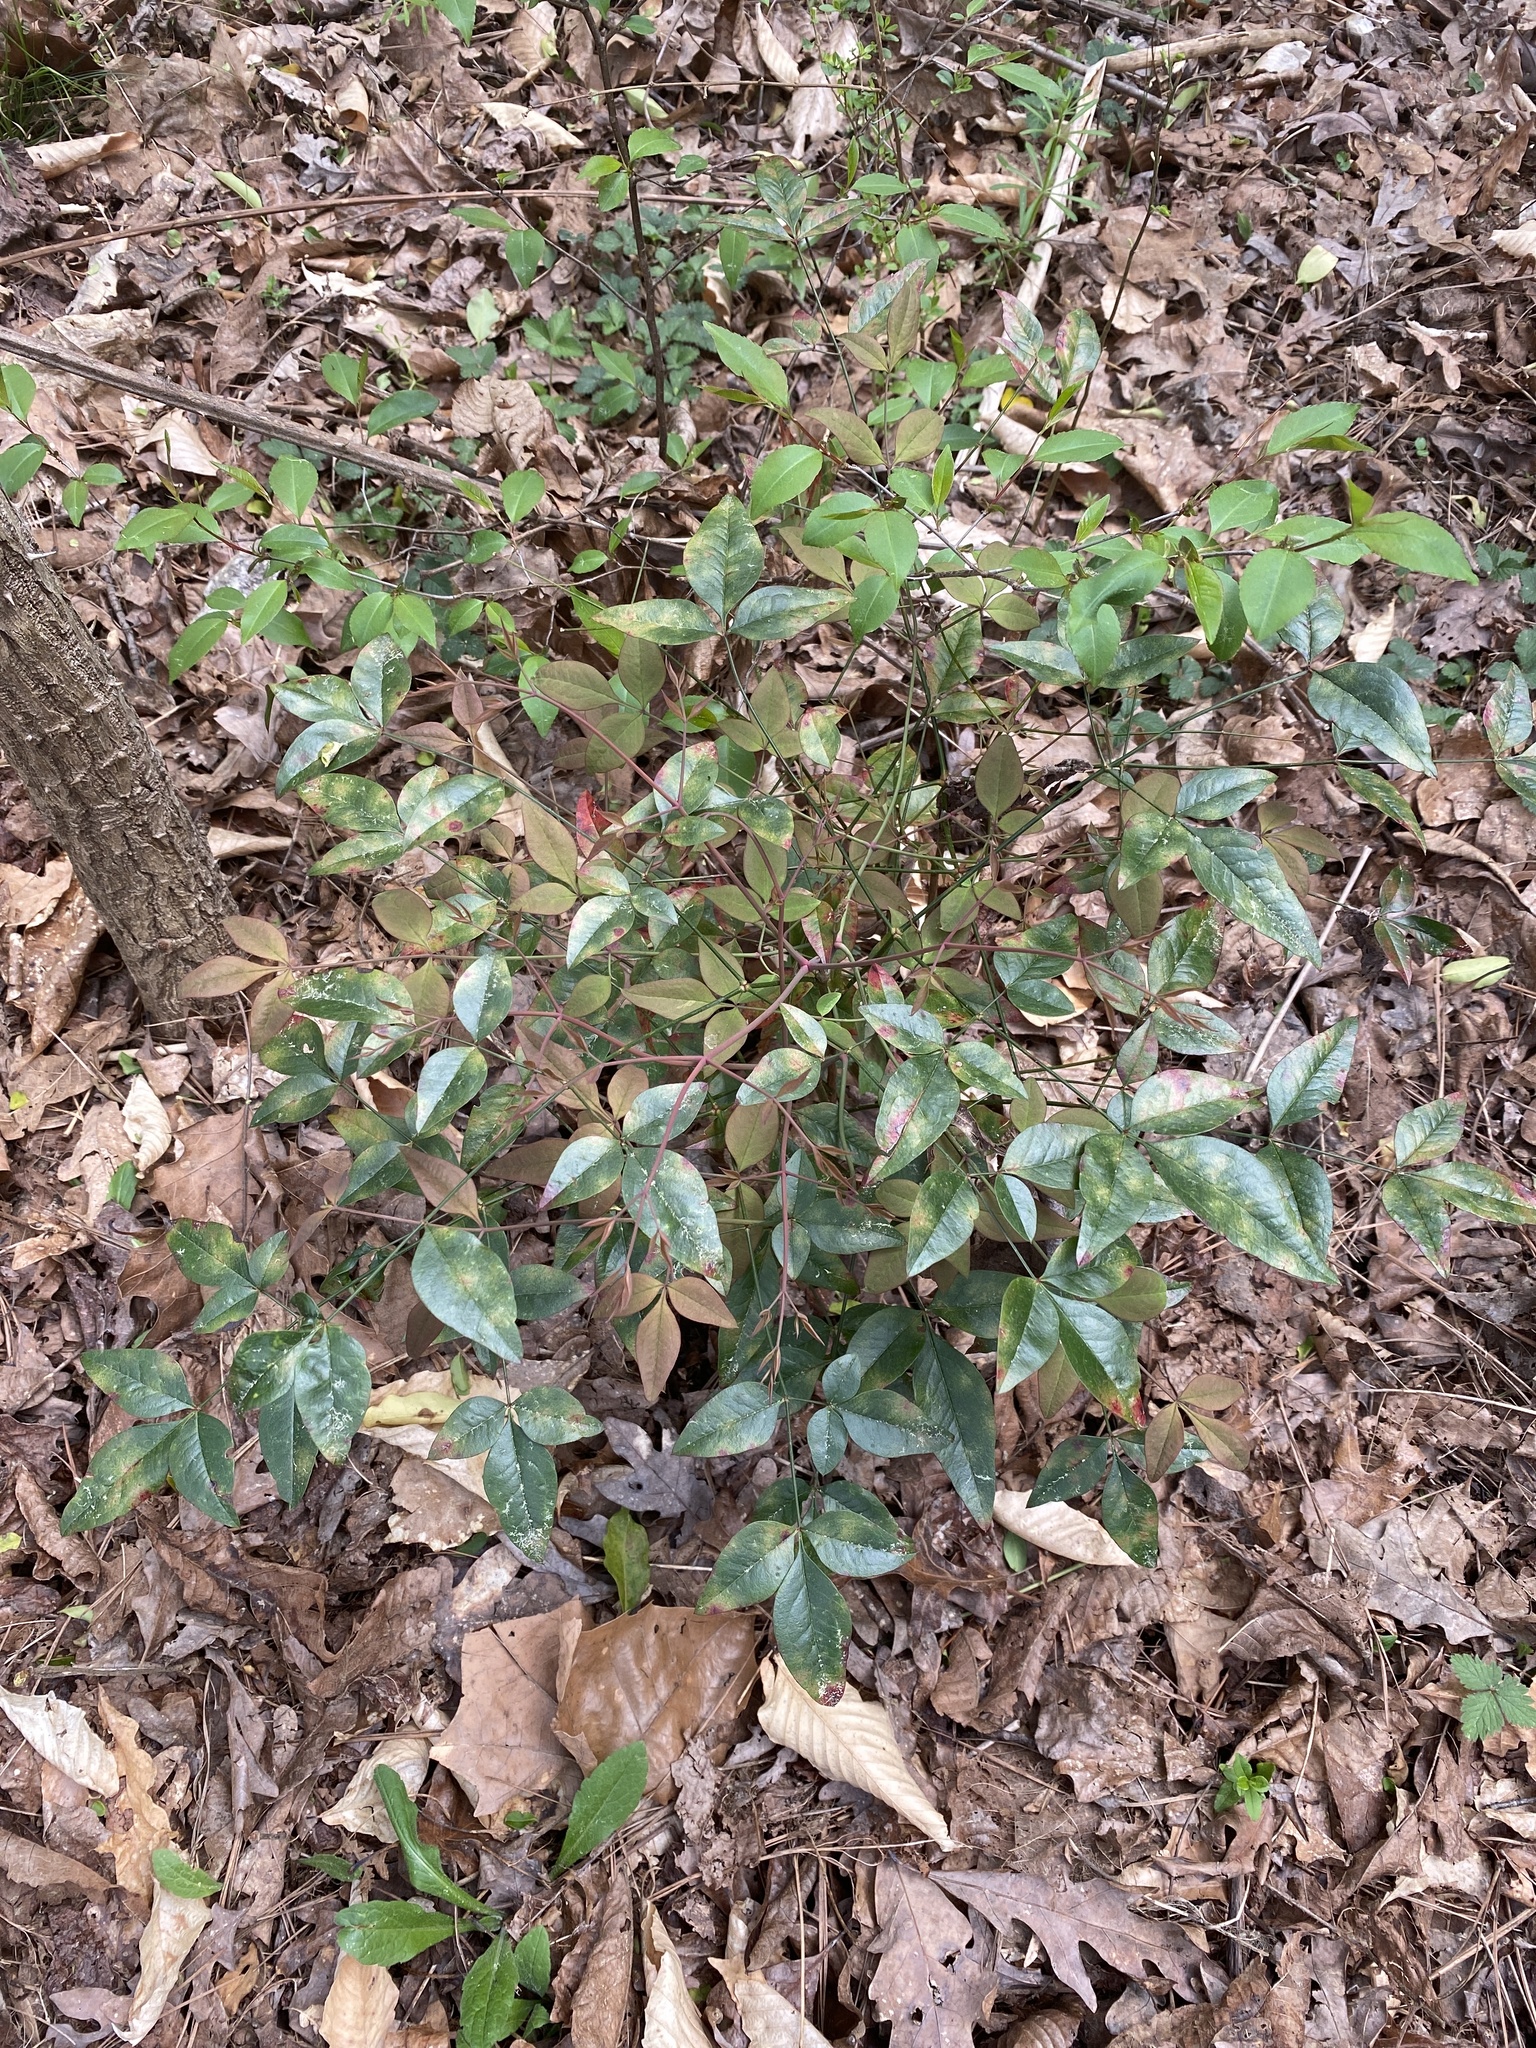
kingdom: Plantae
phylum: Tracheophyta
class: Magnoliopsida
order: Ranunculales
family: Berberidaceae
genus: Nandina
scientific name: Nandina domestica
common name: Sacred bamboo
